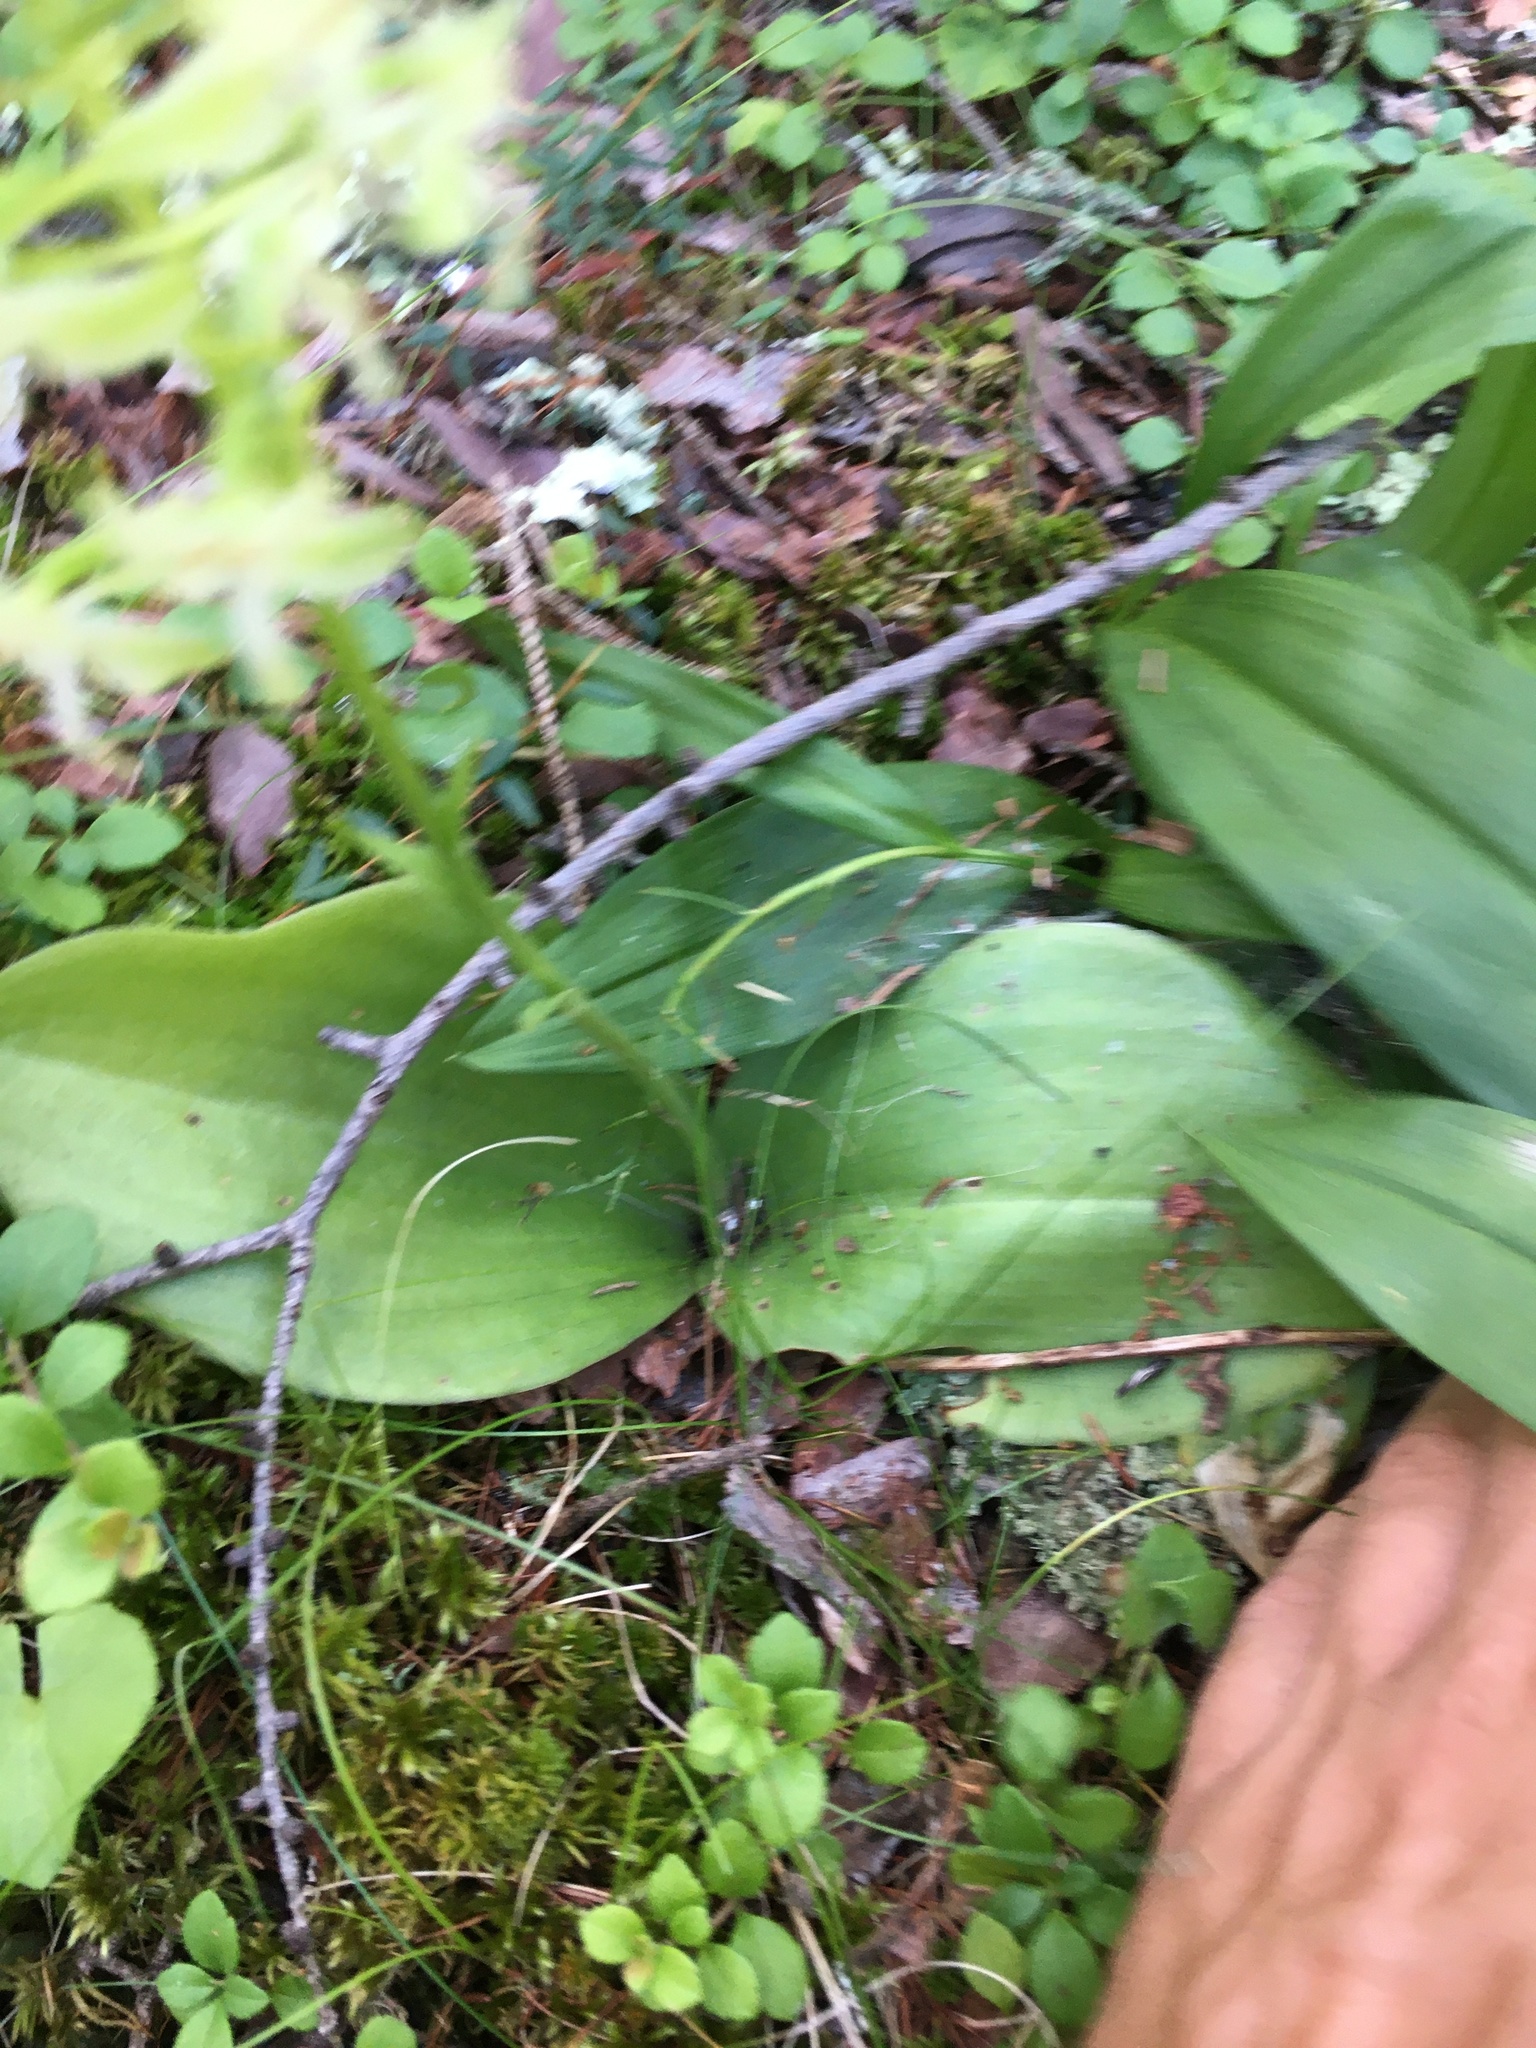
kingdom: Plantae
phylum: Tracheophyta
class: Liliopsida
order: Asparagales
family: Orchidaceae
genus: Platanthera
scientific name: Platanthera orbiculata
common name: Large round-leaved orchid
